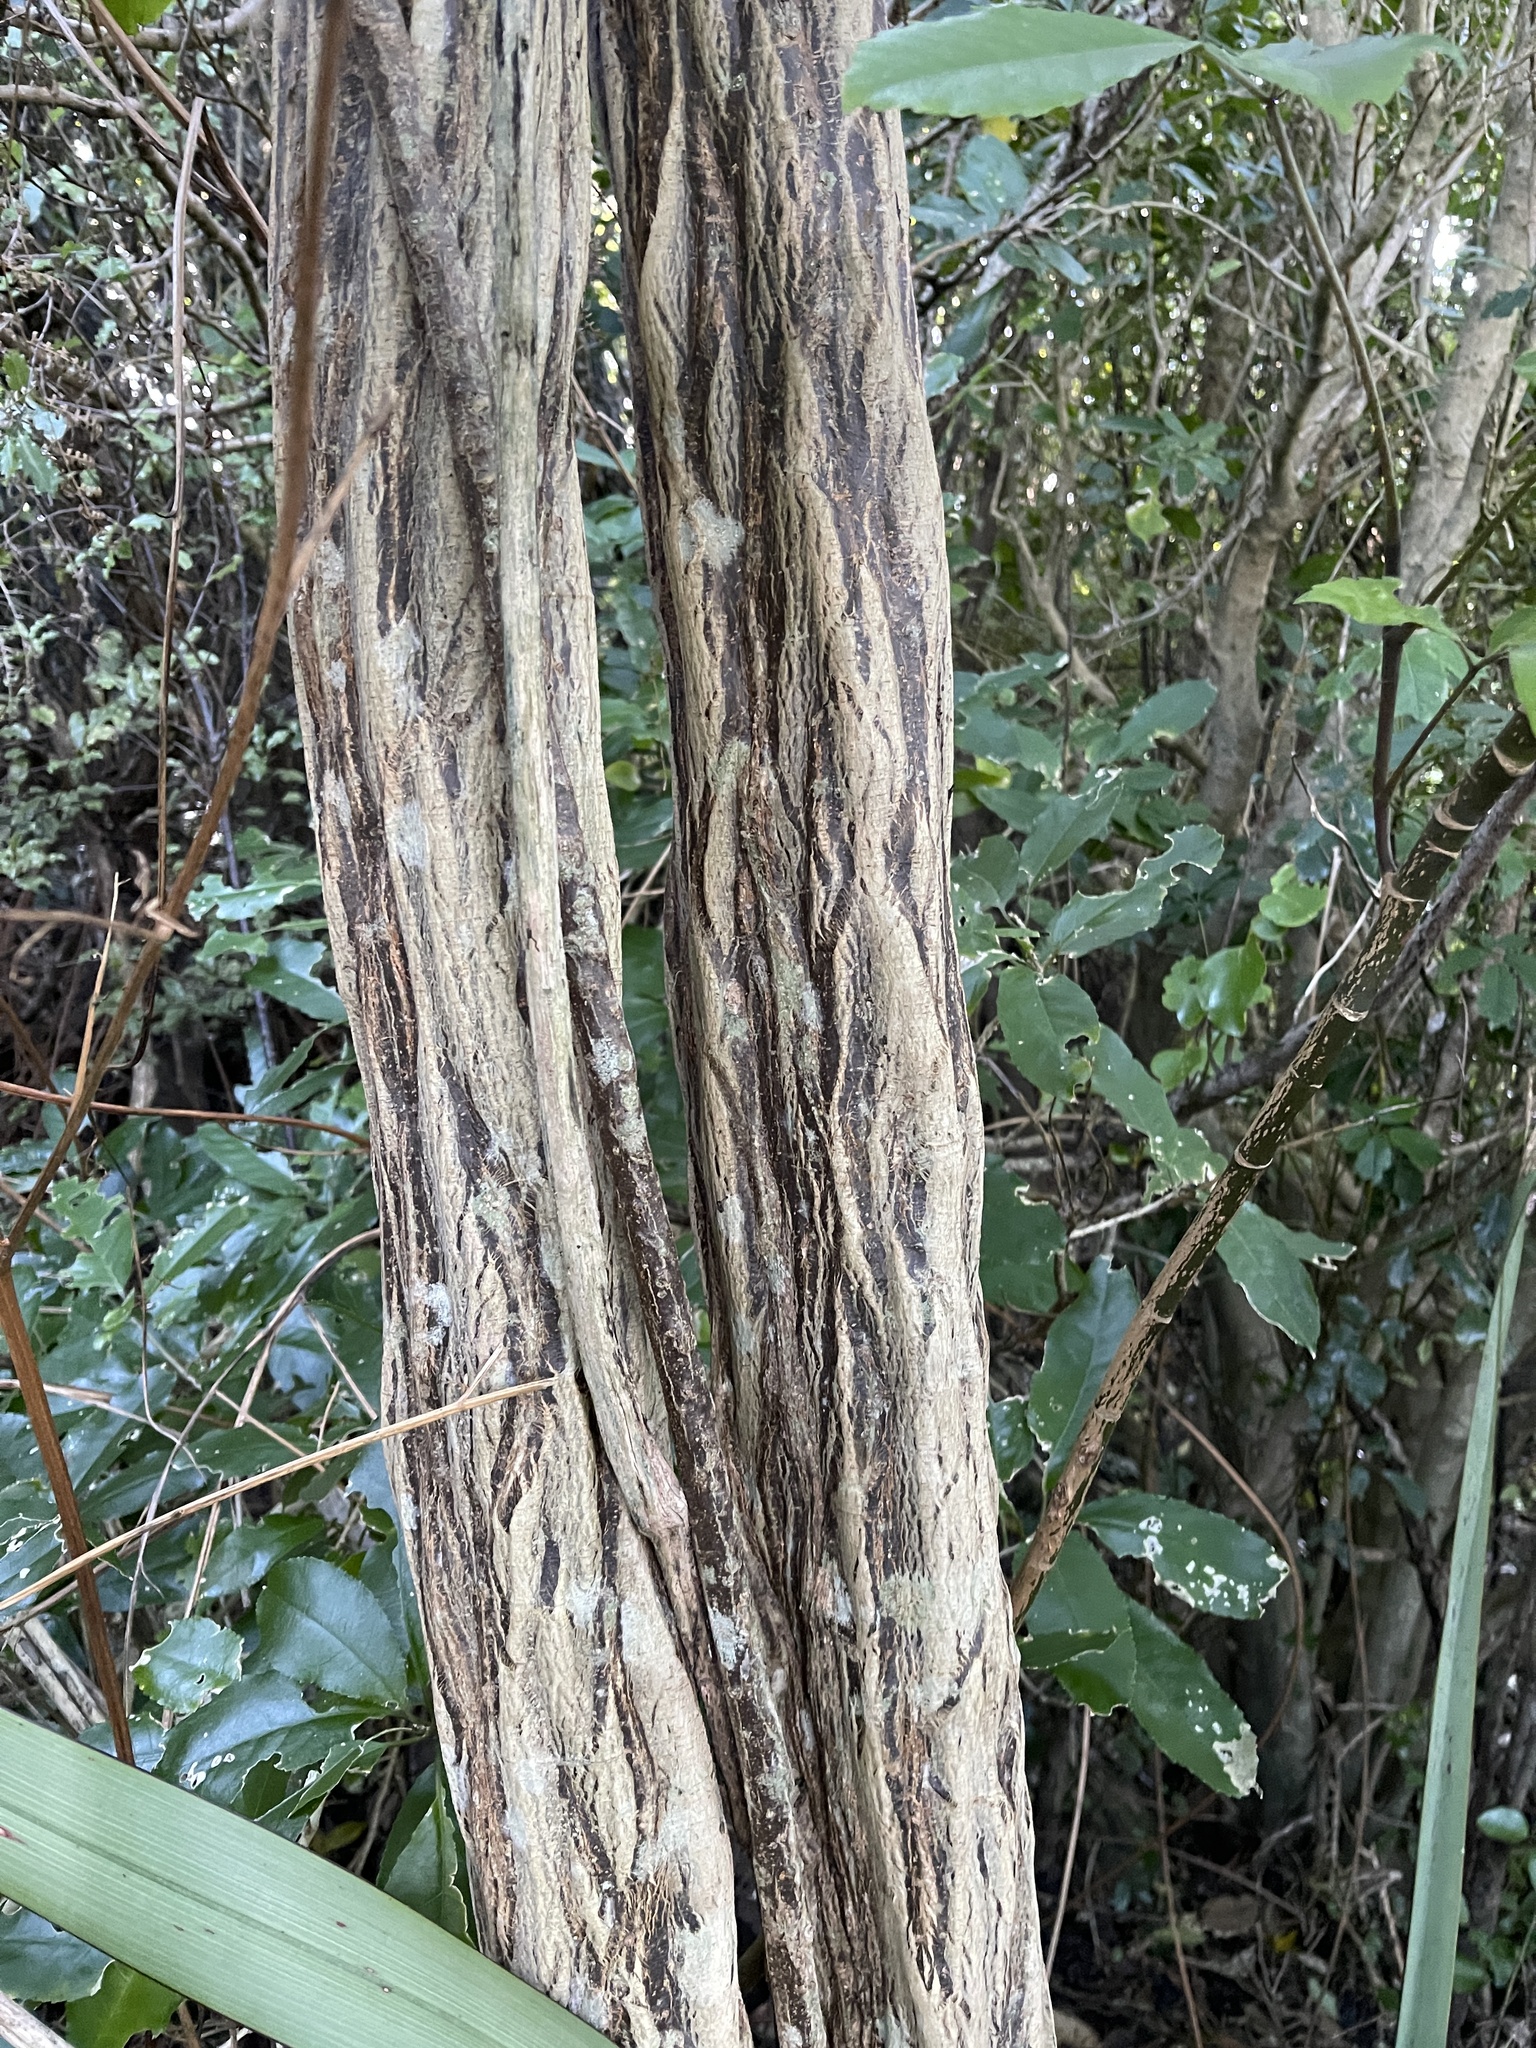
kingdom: Plantae
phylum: Tracheophyta
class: Magnoliopsida
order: Apiales
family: Araliaceae
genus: Pseudopanax
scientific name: Pseudopanax crassifolius
